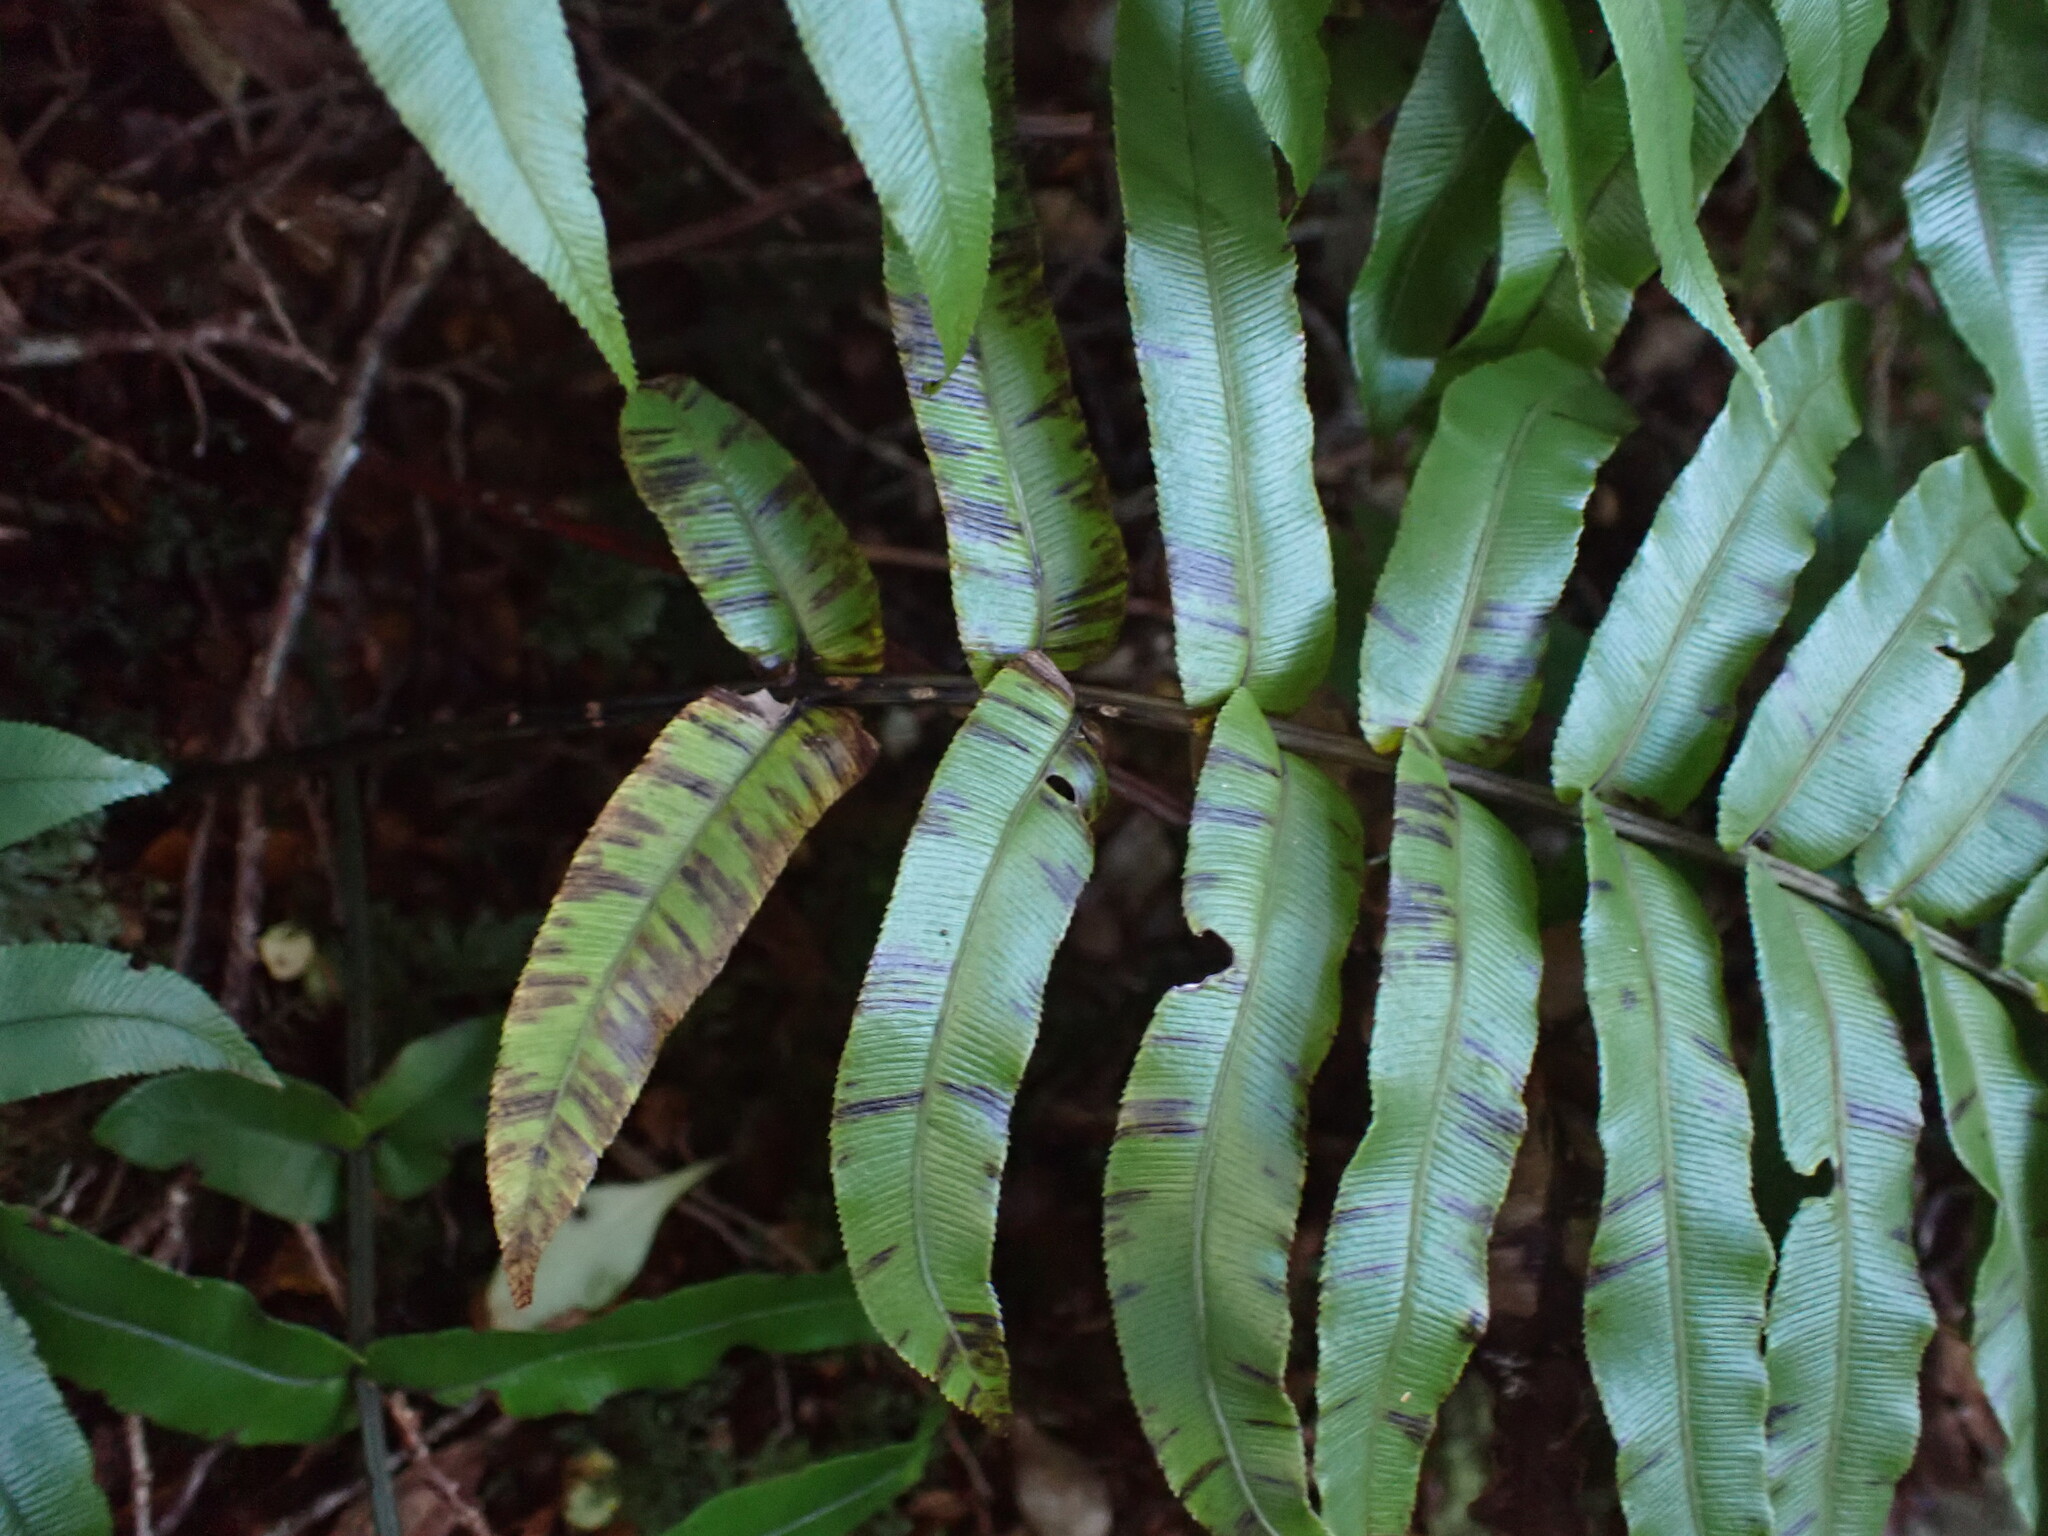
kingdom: Plantae
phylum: Tracheophyta
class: Polypodiopsida
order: Polypodiales
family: Blechnaceae
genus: Parablechnum
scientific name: Parablechnum montanum
